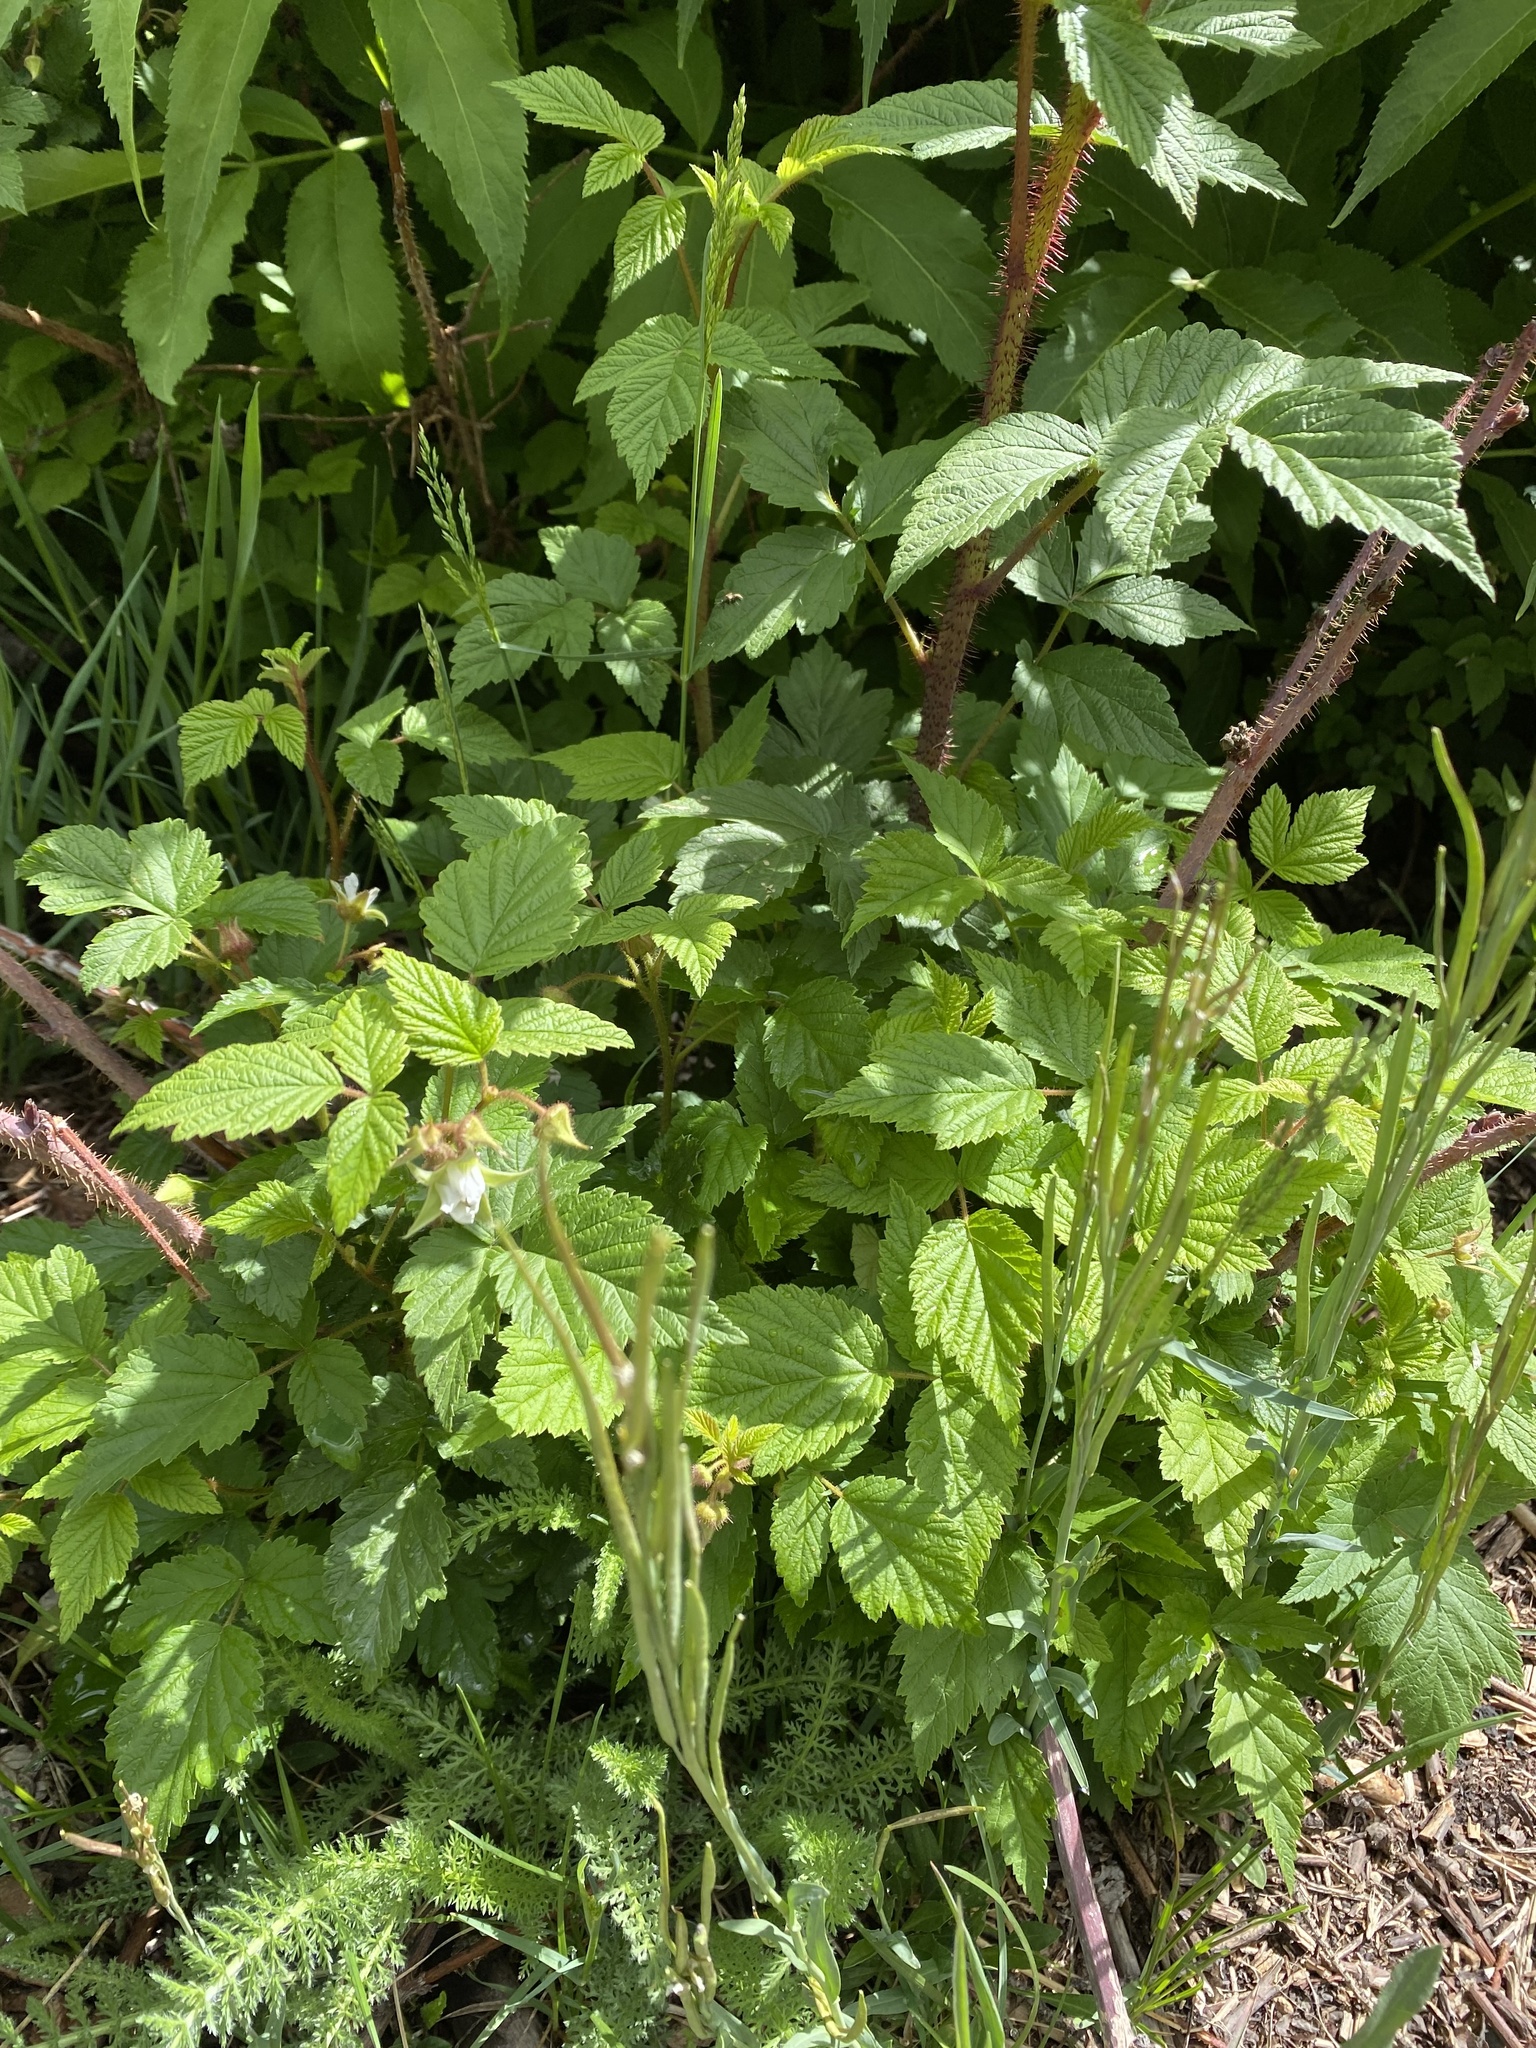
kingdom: Plantae
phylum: Tracheophyta
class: Magnoliopsida
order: Rosales
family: Rosaceae
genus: Rubus
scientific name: Rubus idaeus
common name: Raspberry
